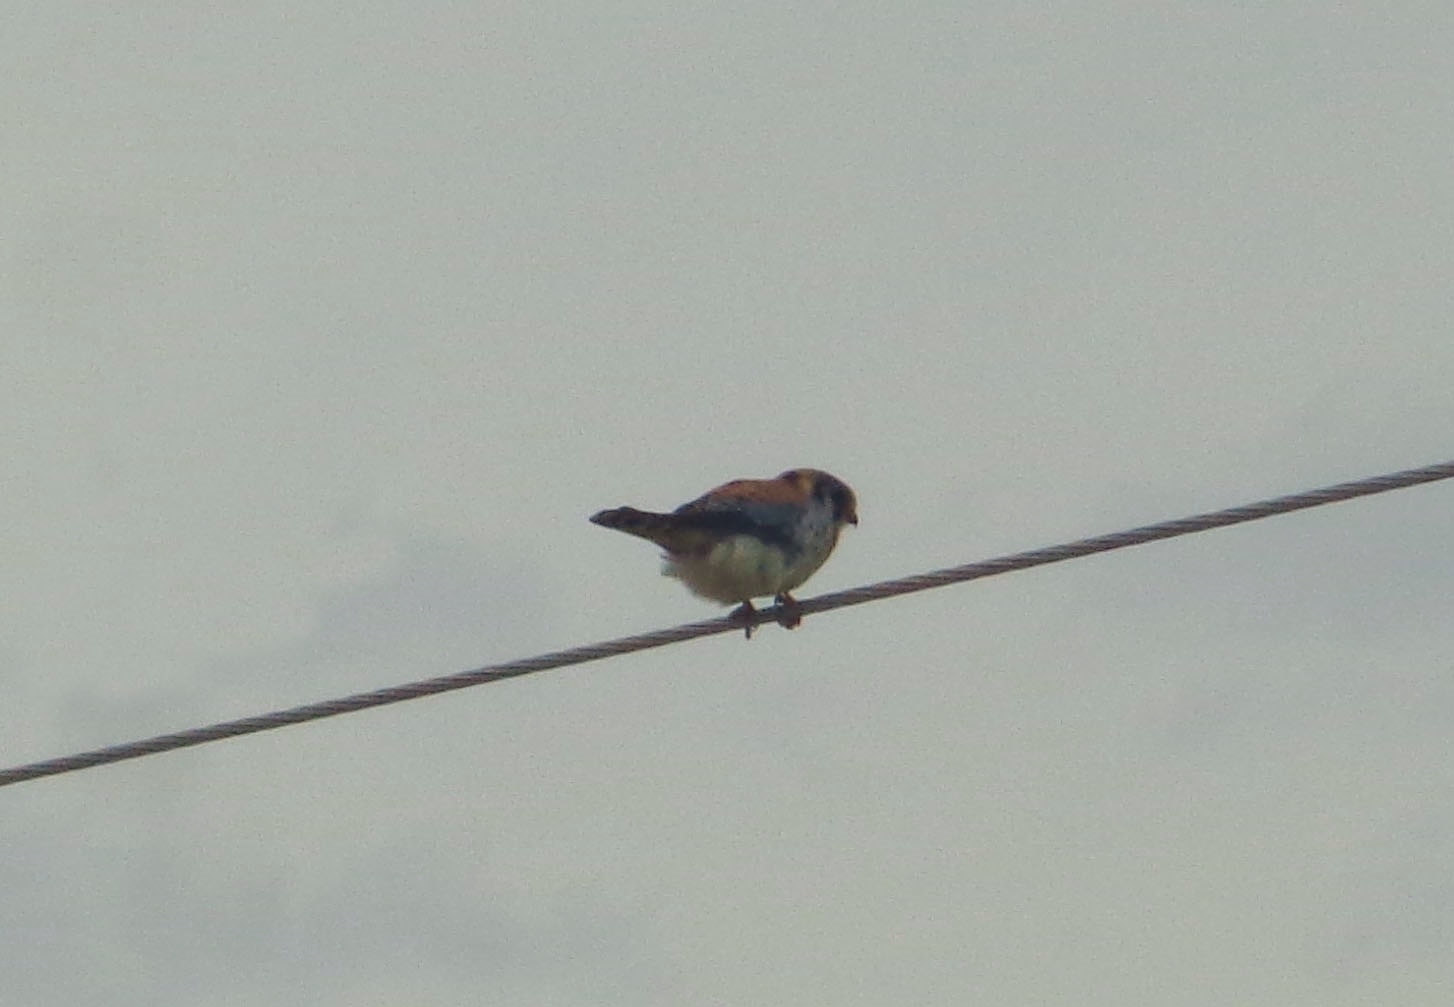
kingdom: Animalia
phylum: Chordata
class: Aves
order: Falconiformes
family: Falconidae
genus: Falco
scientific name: Falco sparverius
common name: American kestrel
